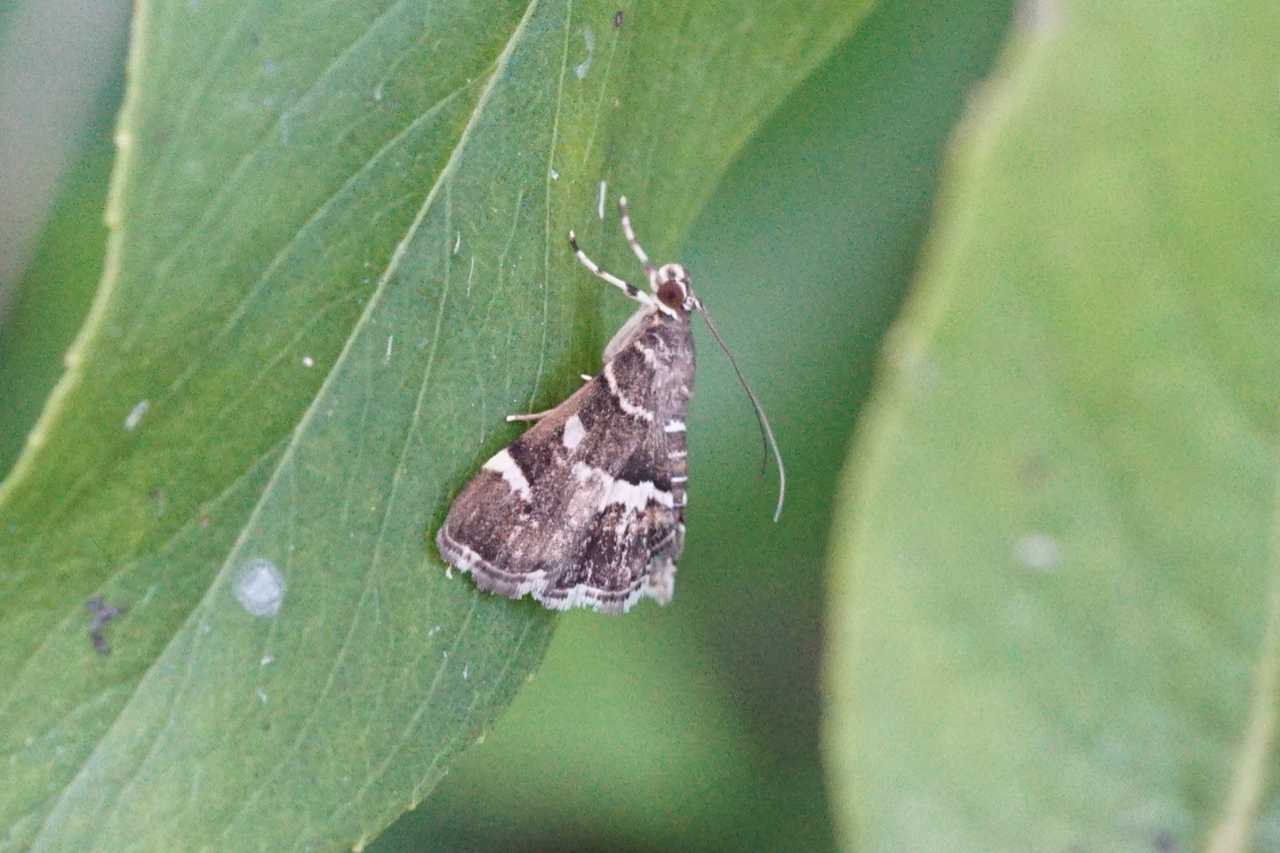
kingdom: Animalia
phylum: Arthropoda
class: Insecta
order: Lepidoptera
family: Crambidae
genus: Hymenia
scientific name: Hymenia perspectalis
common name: Spotted beet webworm
